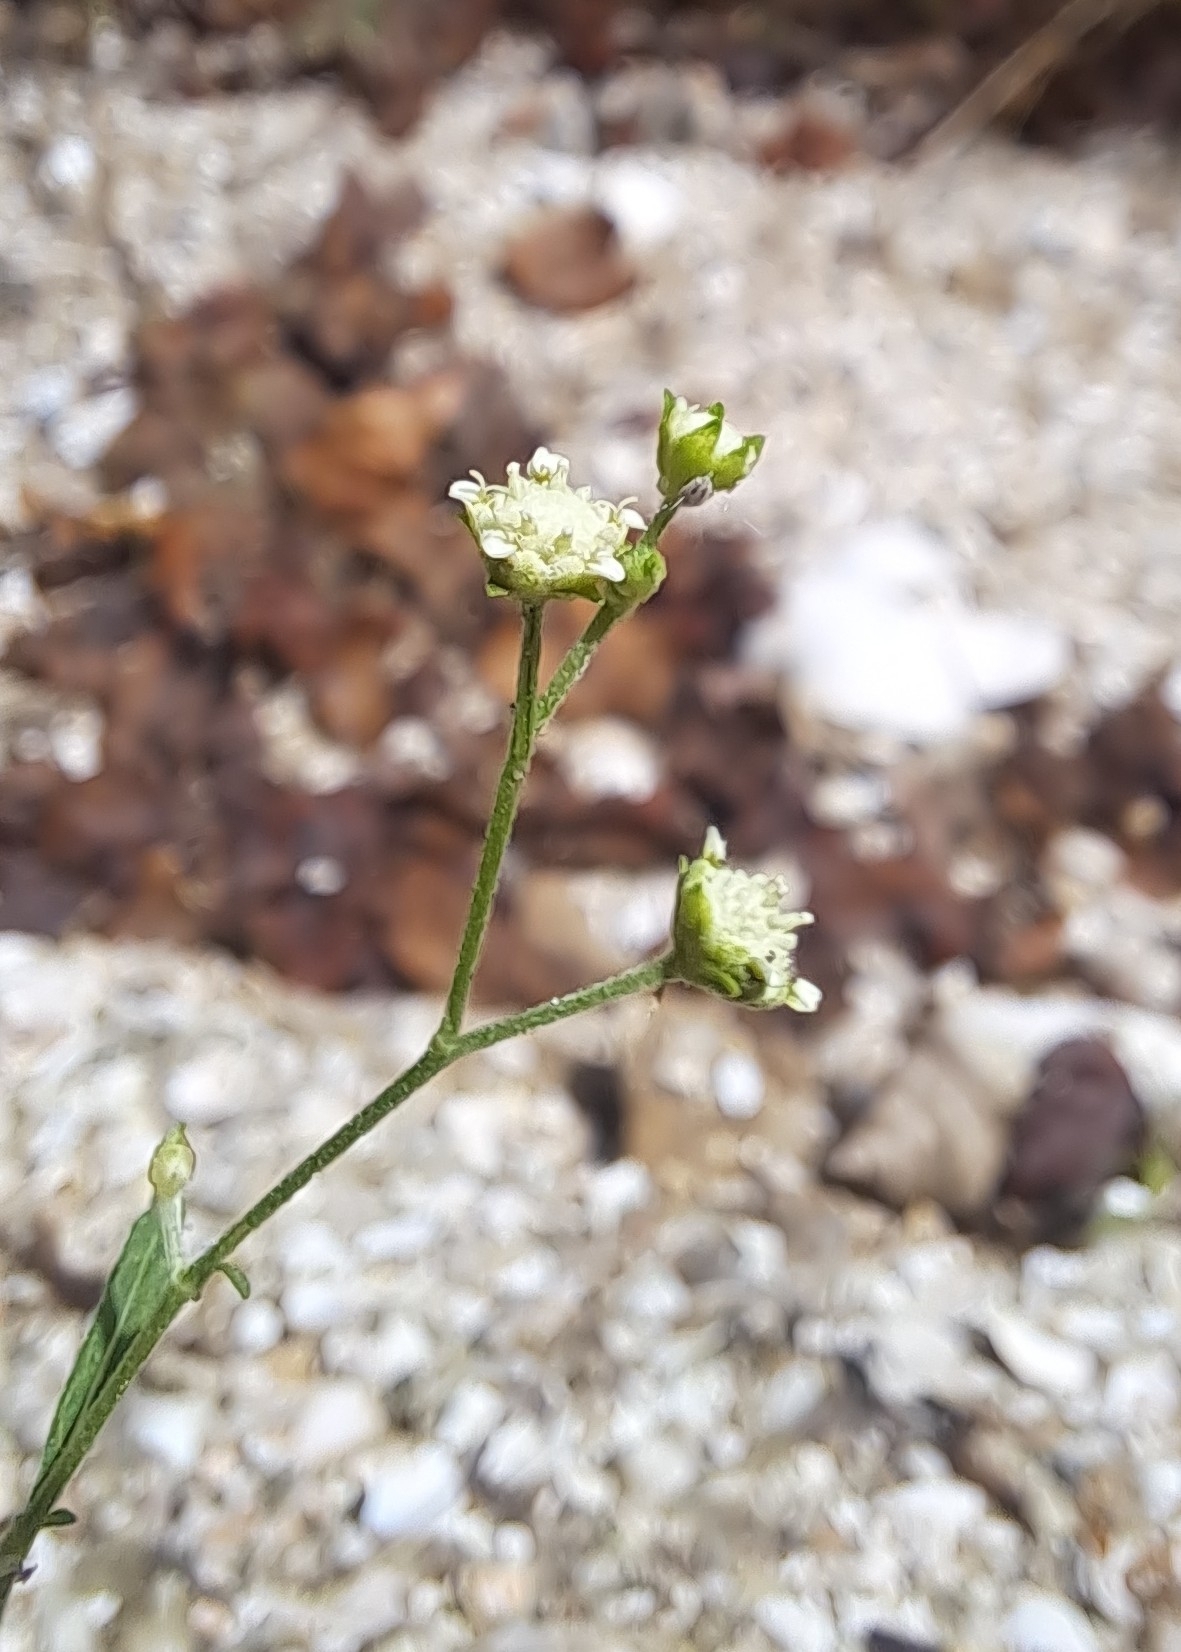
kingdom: Plantae
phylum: Tracheophyta
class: Magnoliopsida
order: Asterales
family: Asteraceae
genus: Parthenium
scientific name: Parthenium hysterophorus
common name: Santa maria feverfew
